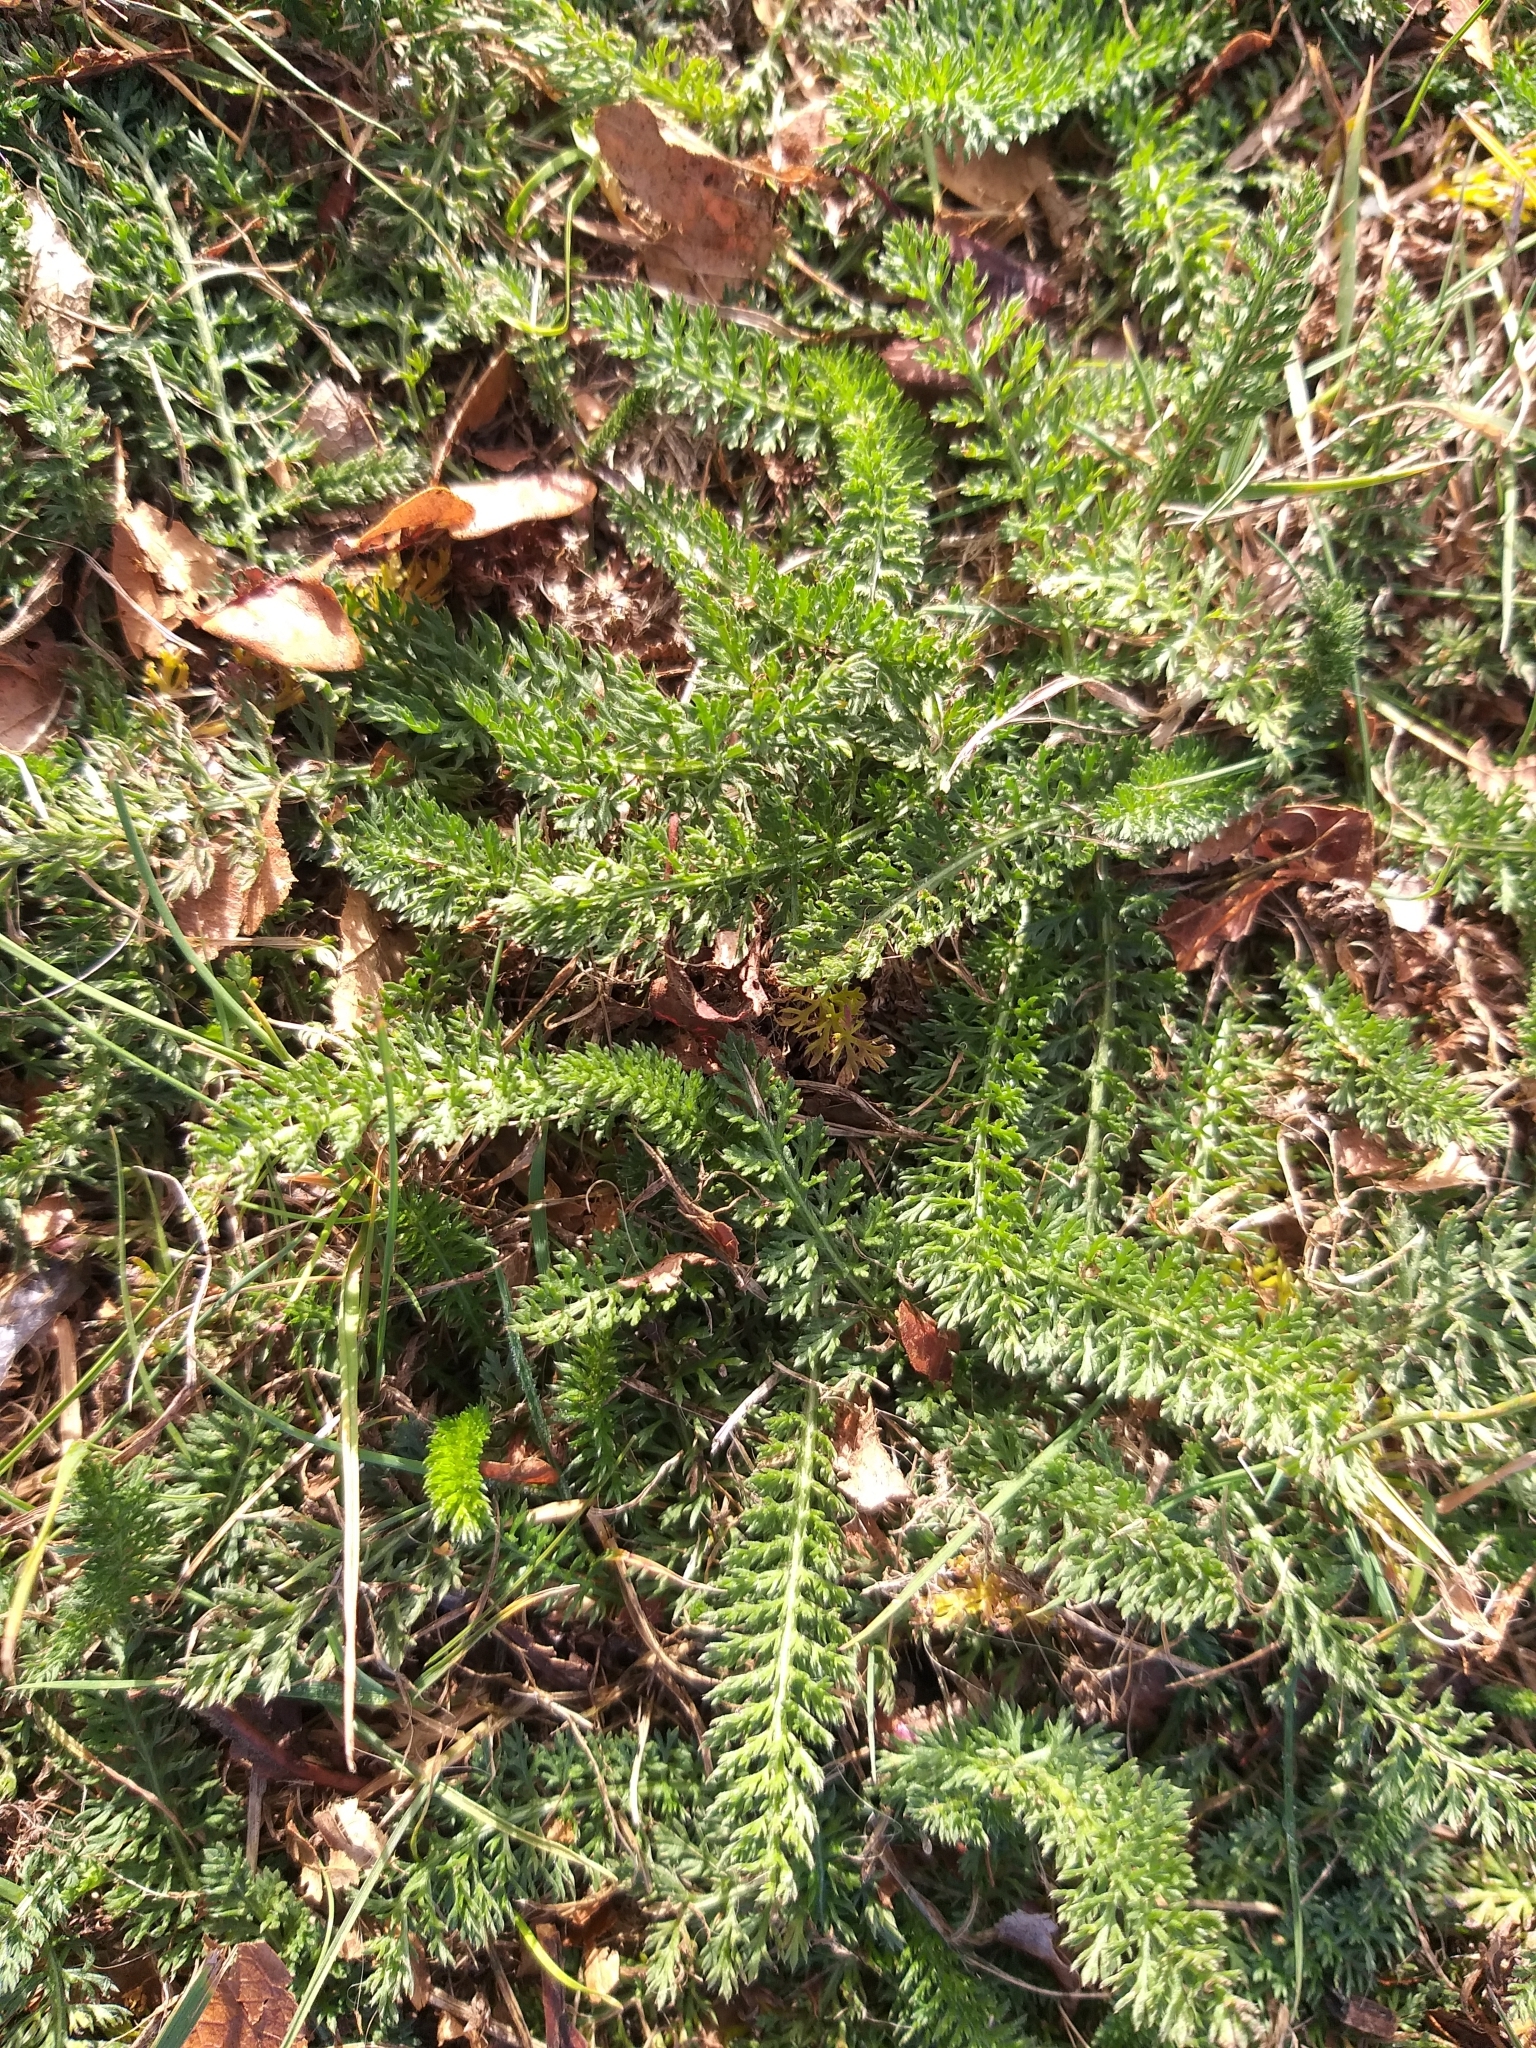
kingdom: Plantae
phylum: Tracheophyta
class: Magnoliopsida
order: Asterales
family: Asteraceae
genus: Achillea
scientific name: Achillea millefolium
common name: Yarrow
